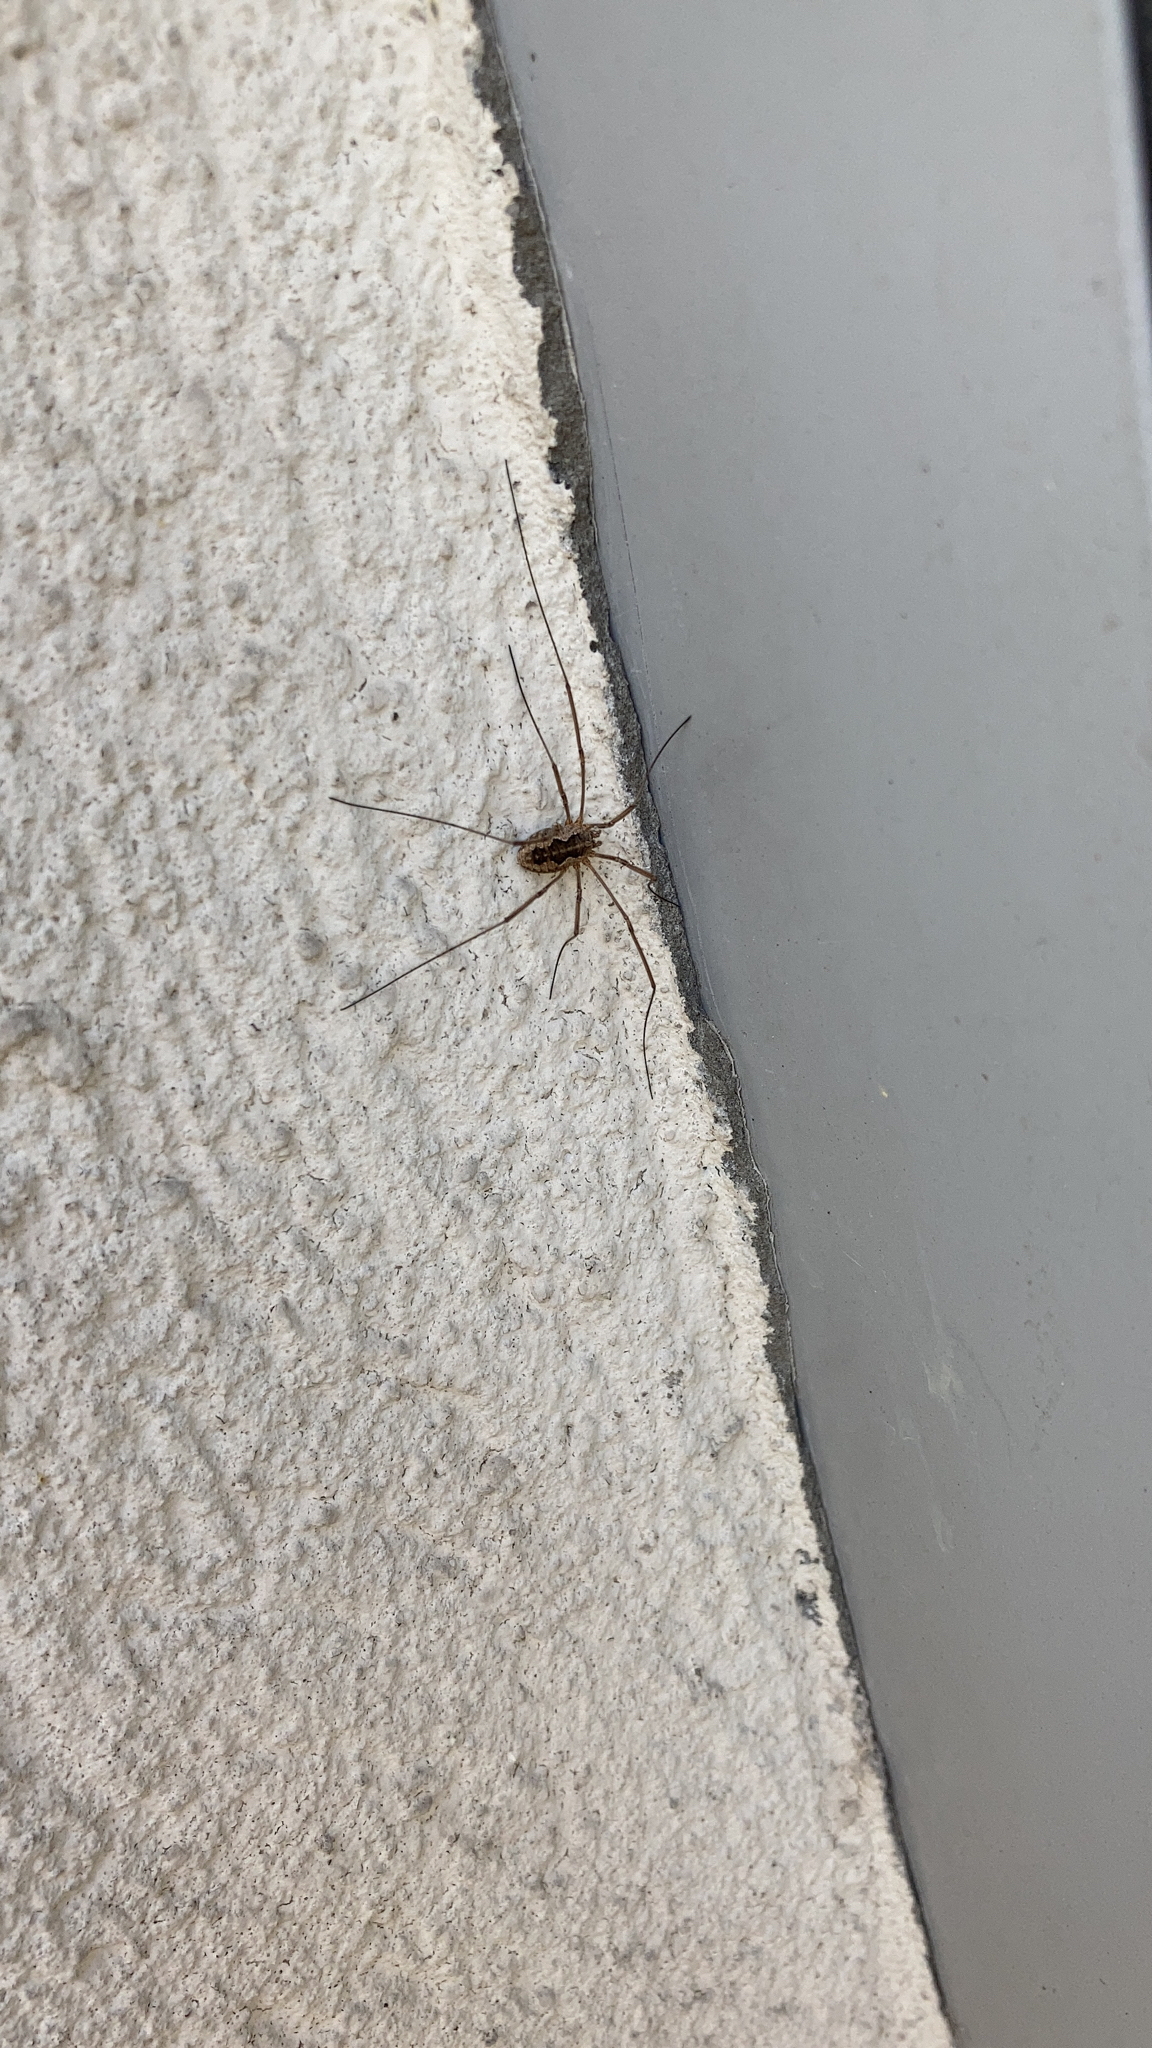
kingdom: Animalia
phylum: Arthropoda
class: Arachnida
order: Opiliones
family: Phalangiidae
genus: Phalangium
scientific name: Phalangium opilio
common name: Daddy longleg
